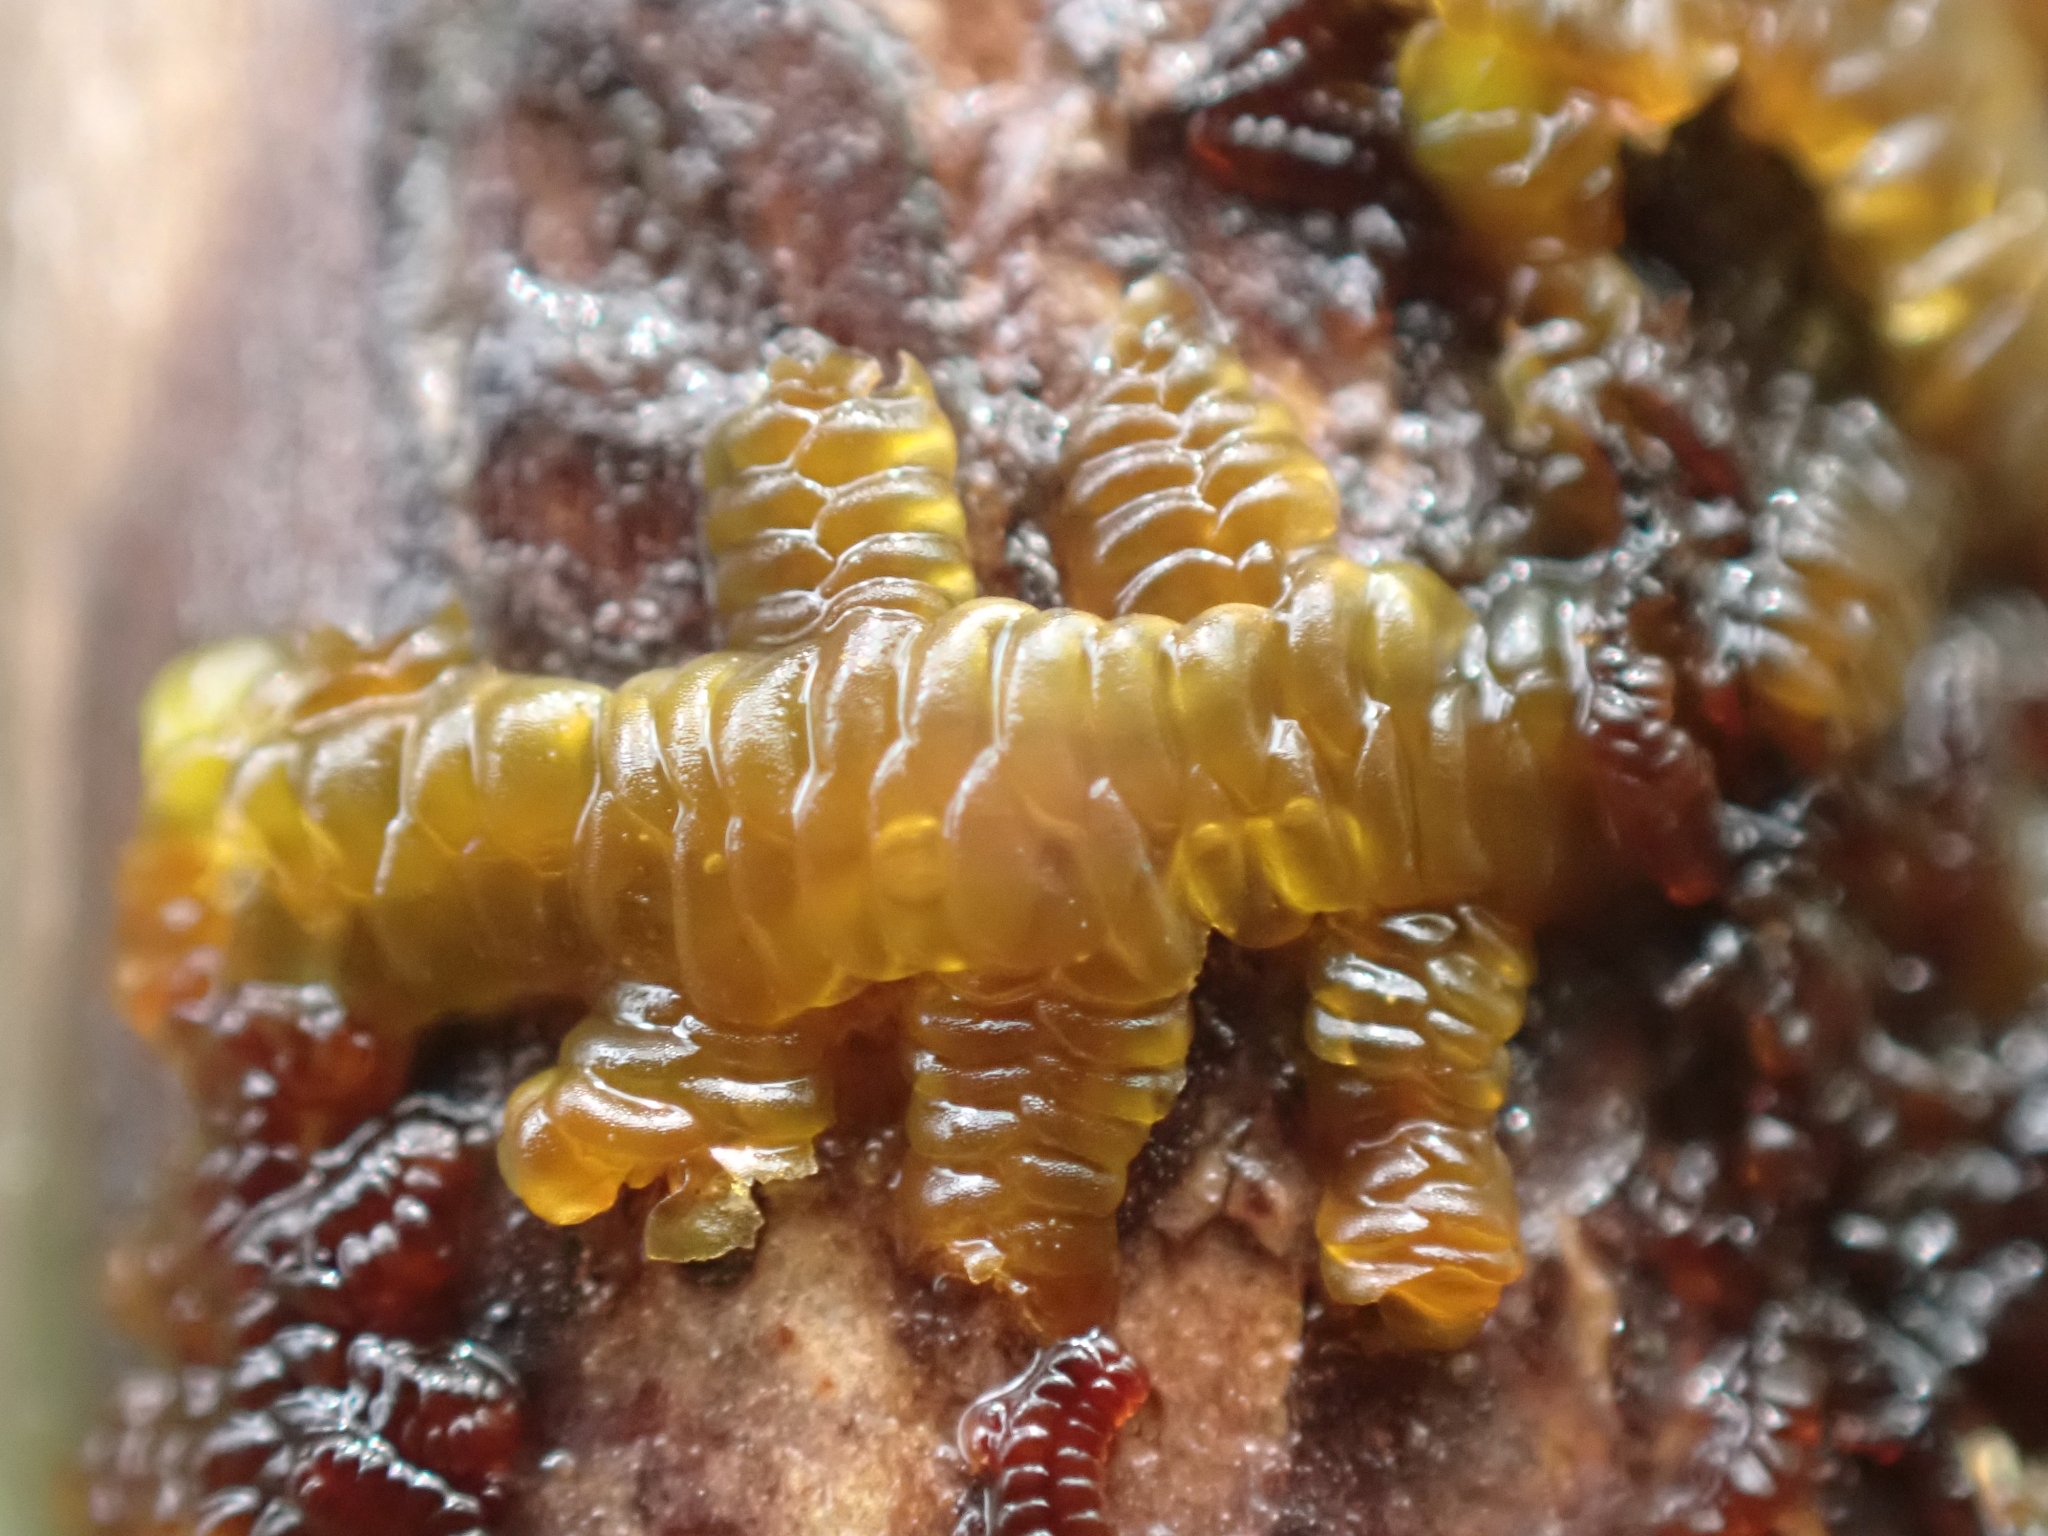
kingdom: Plantae
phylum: Marchantiophyta
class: Jungermanniopsida
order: Porellales
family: Porellaceae
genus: Porella
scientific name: Porella navicularis
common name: Tree ruffle liverwort
